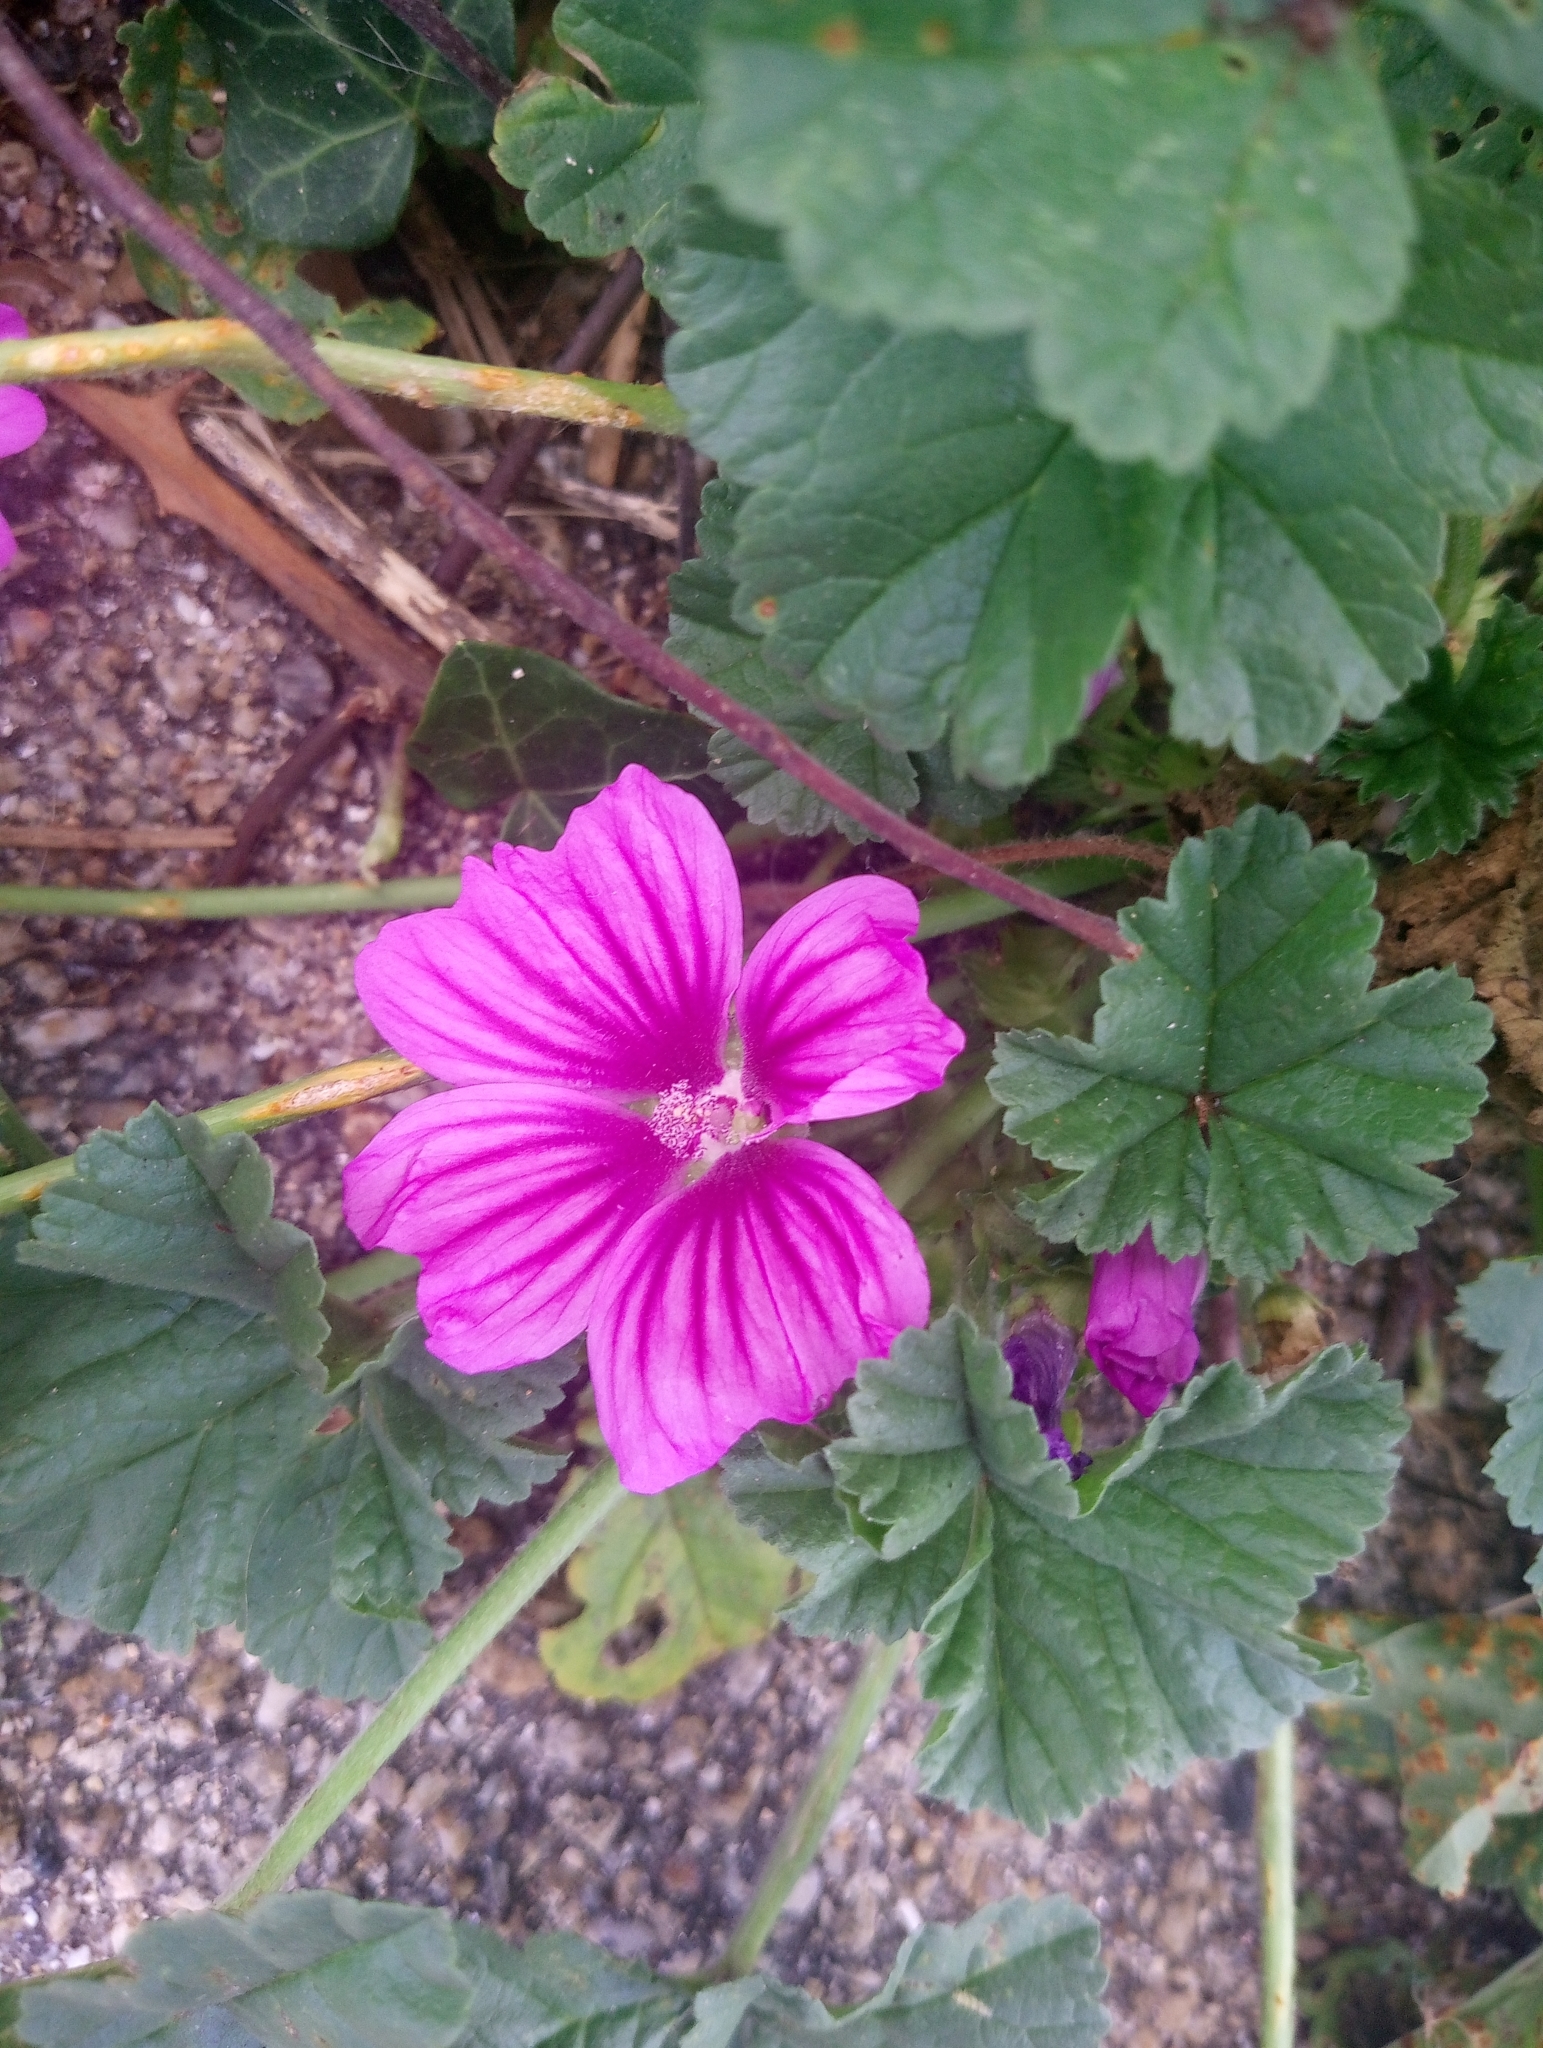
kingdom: Plantae
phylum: Tracheophyta
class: Magnoliopsida
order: Malvales
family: Malvaceae
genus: Malva
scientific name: Malva sylvestris
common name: Common mallow
